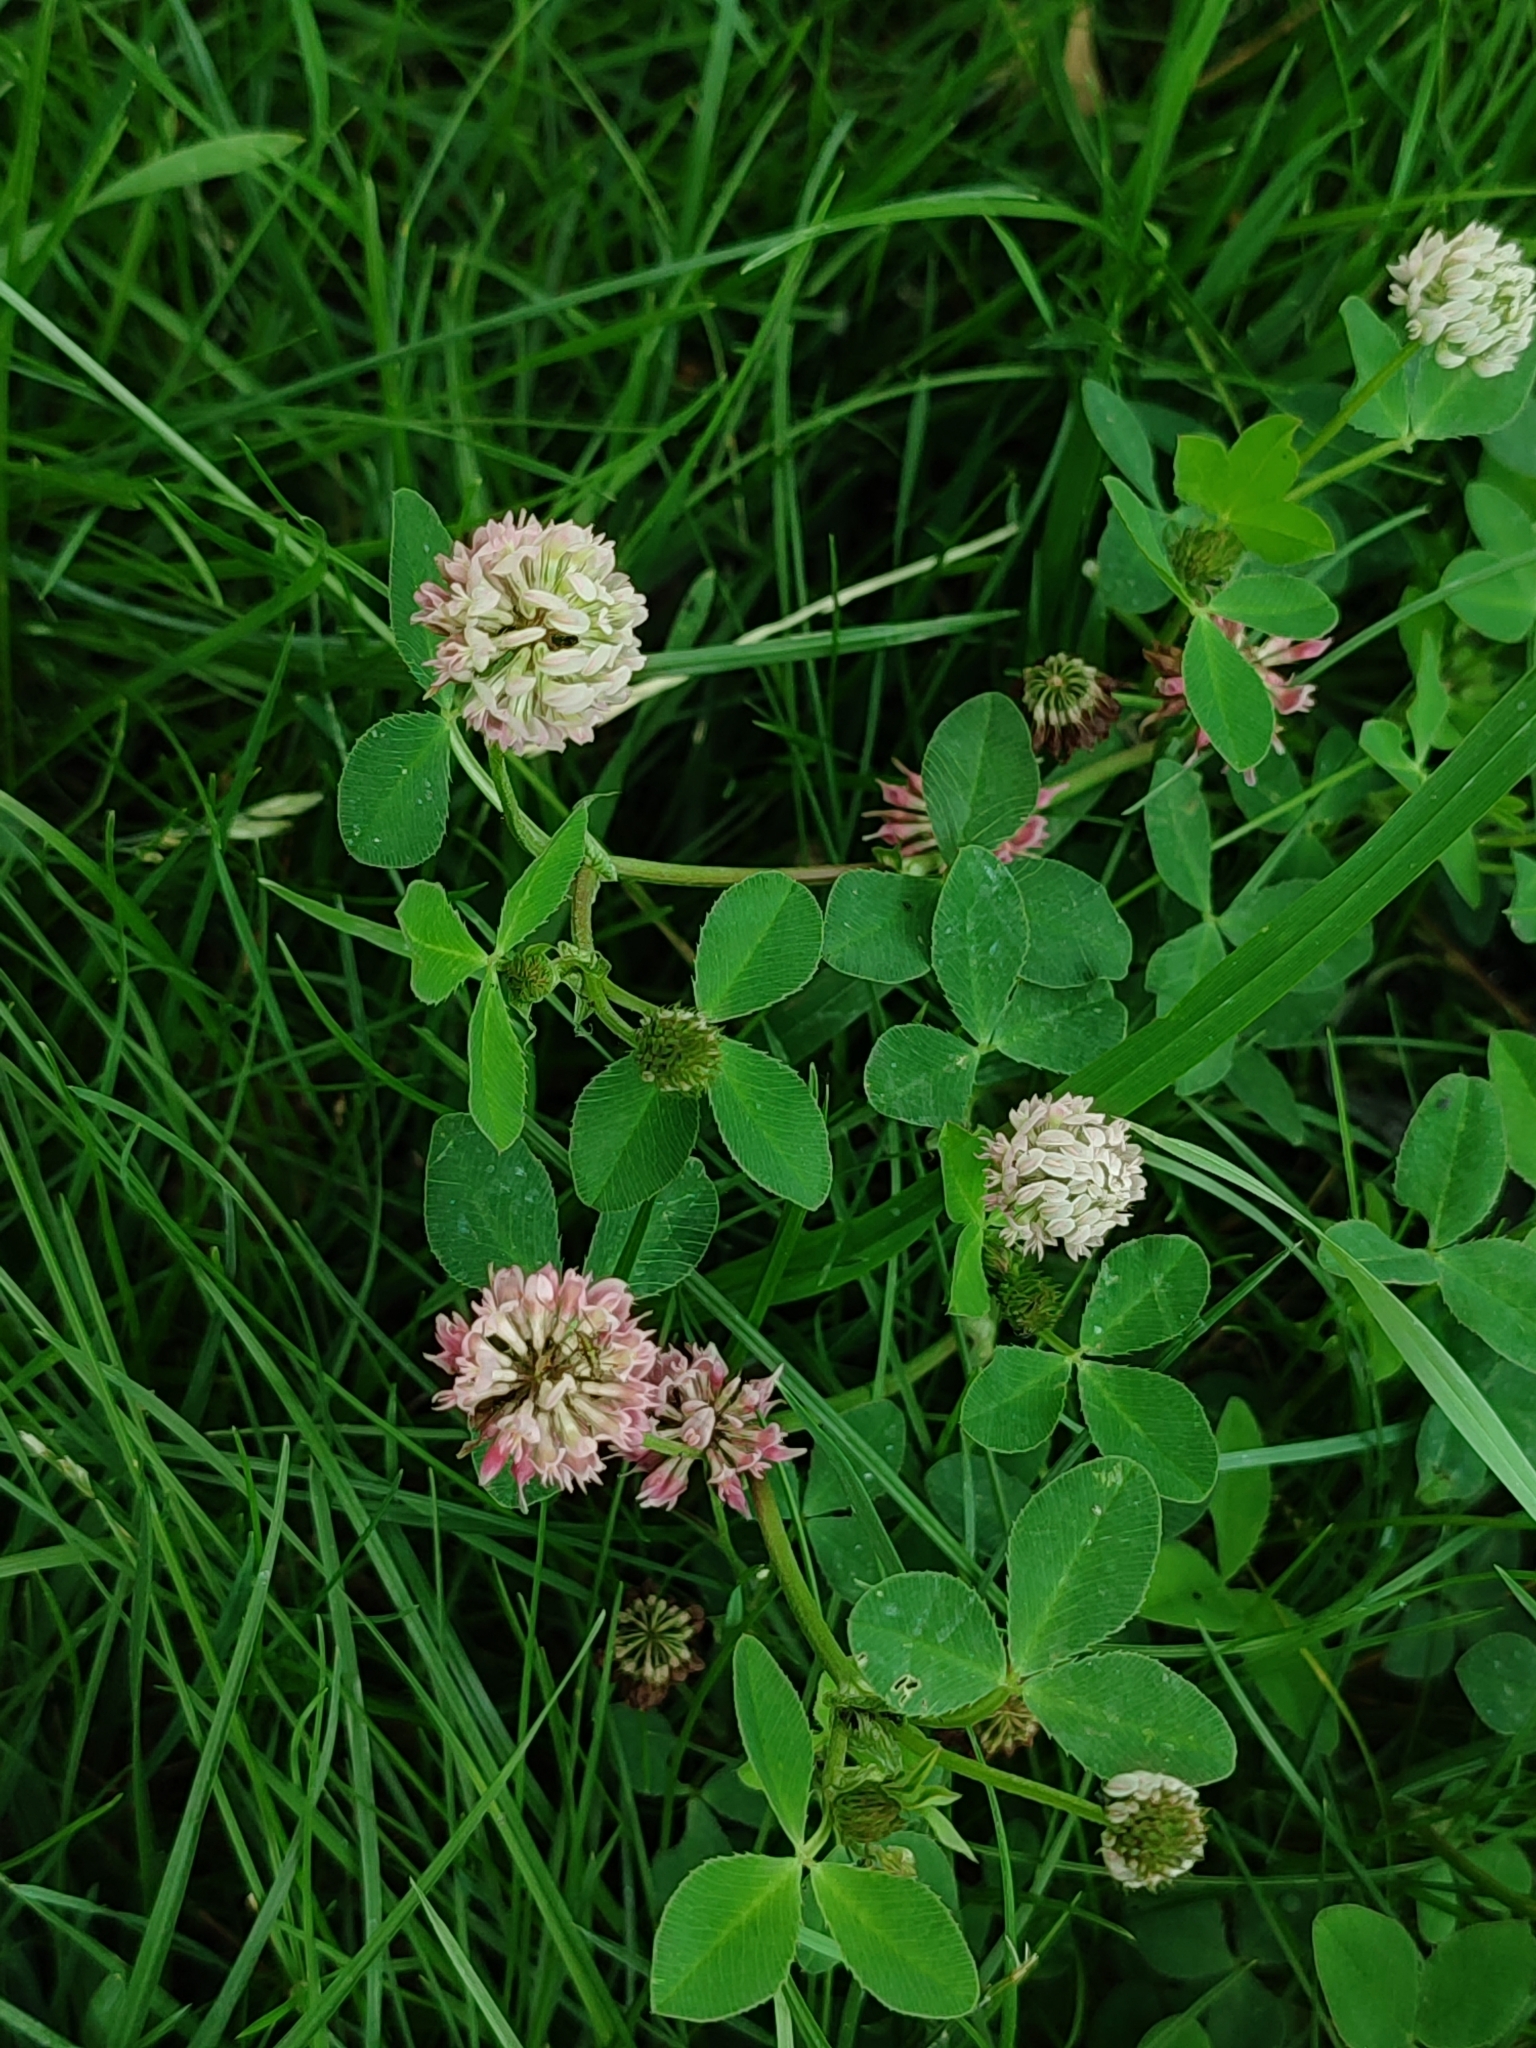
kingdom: Plantae
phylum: Tracheophyta
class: Magnoliopsida
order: Fabales
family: Fabaceae
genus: Trifolium
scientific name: Trifolium hybridum
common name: Alsike clover
